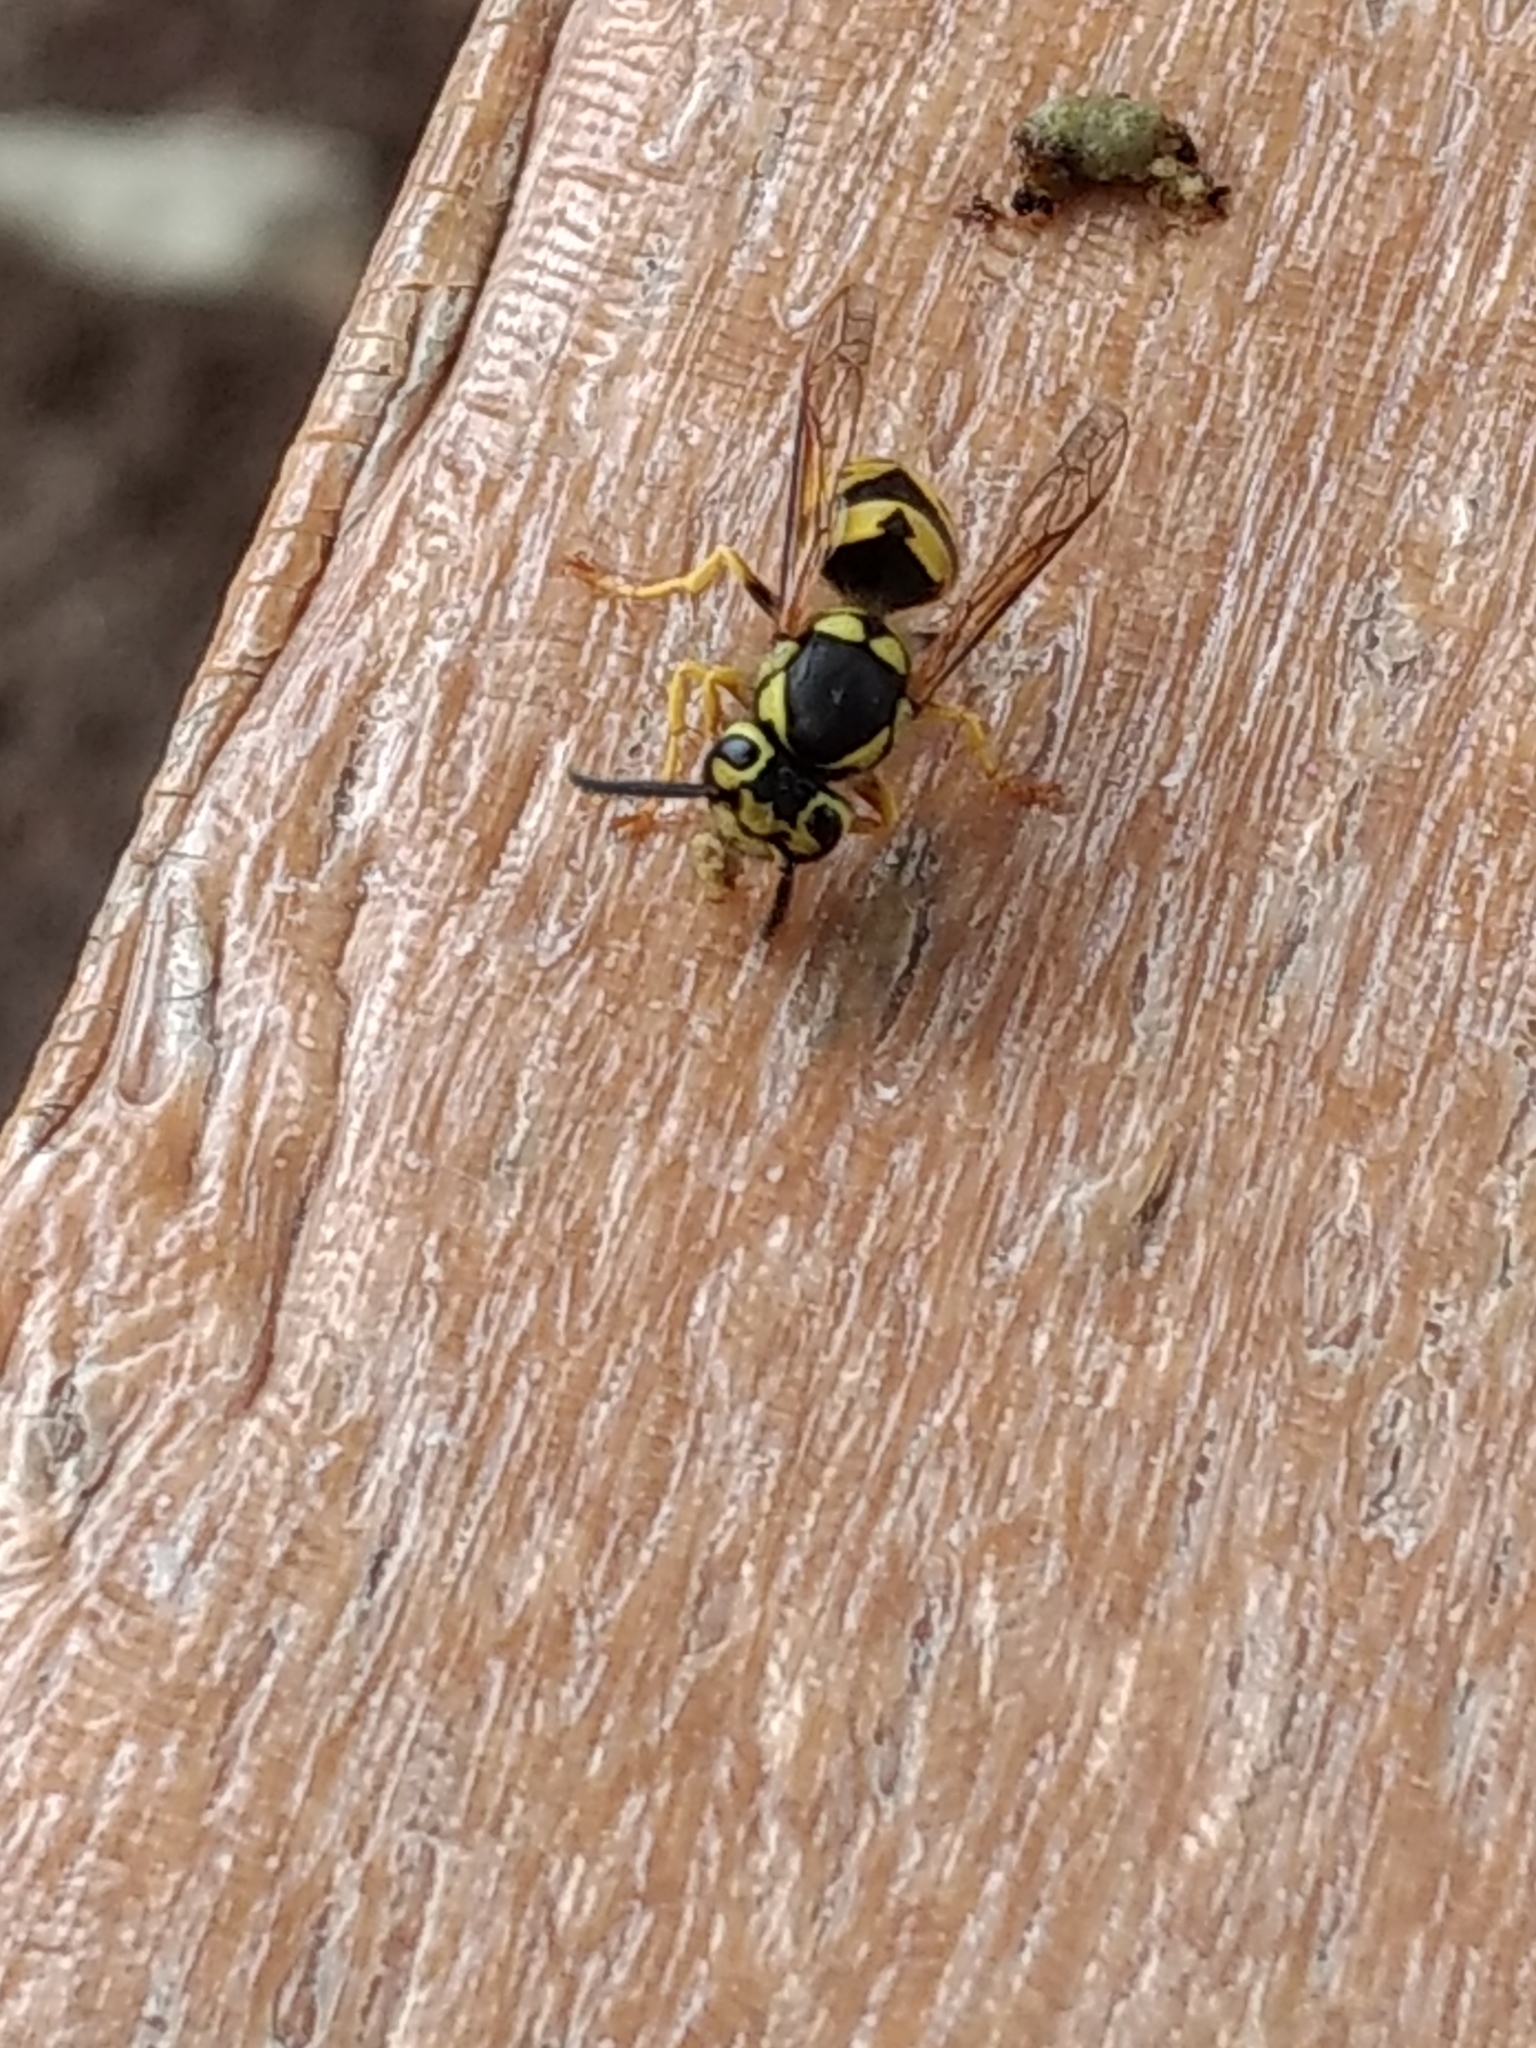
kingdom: Animalia
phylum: Arthropoda
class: Insecta
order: Hymenoptera
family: Vespidae
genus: Vespula
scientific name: Vespula pensylvanica
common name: Western yellowjacket
